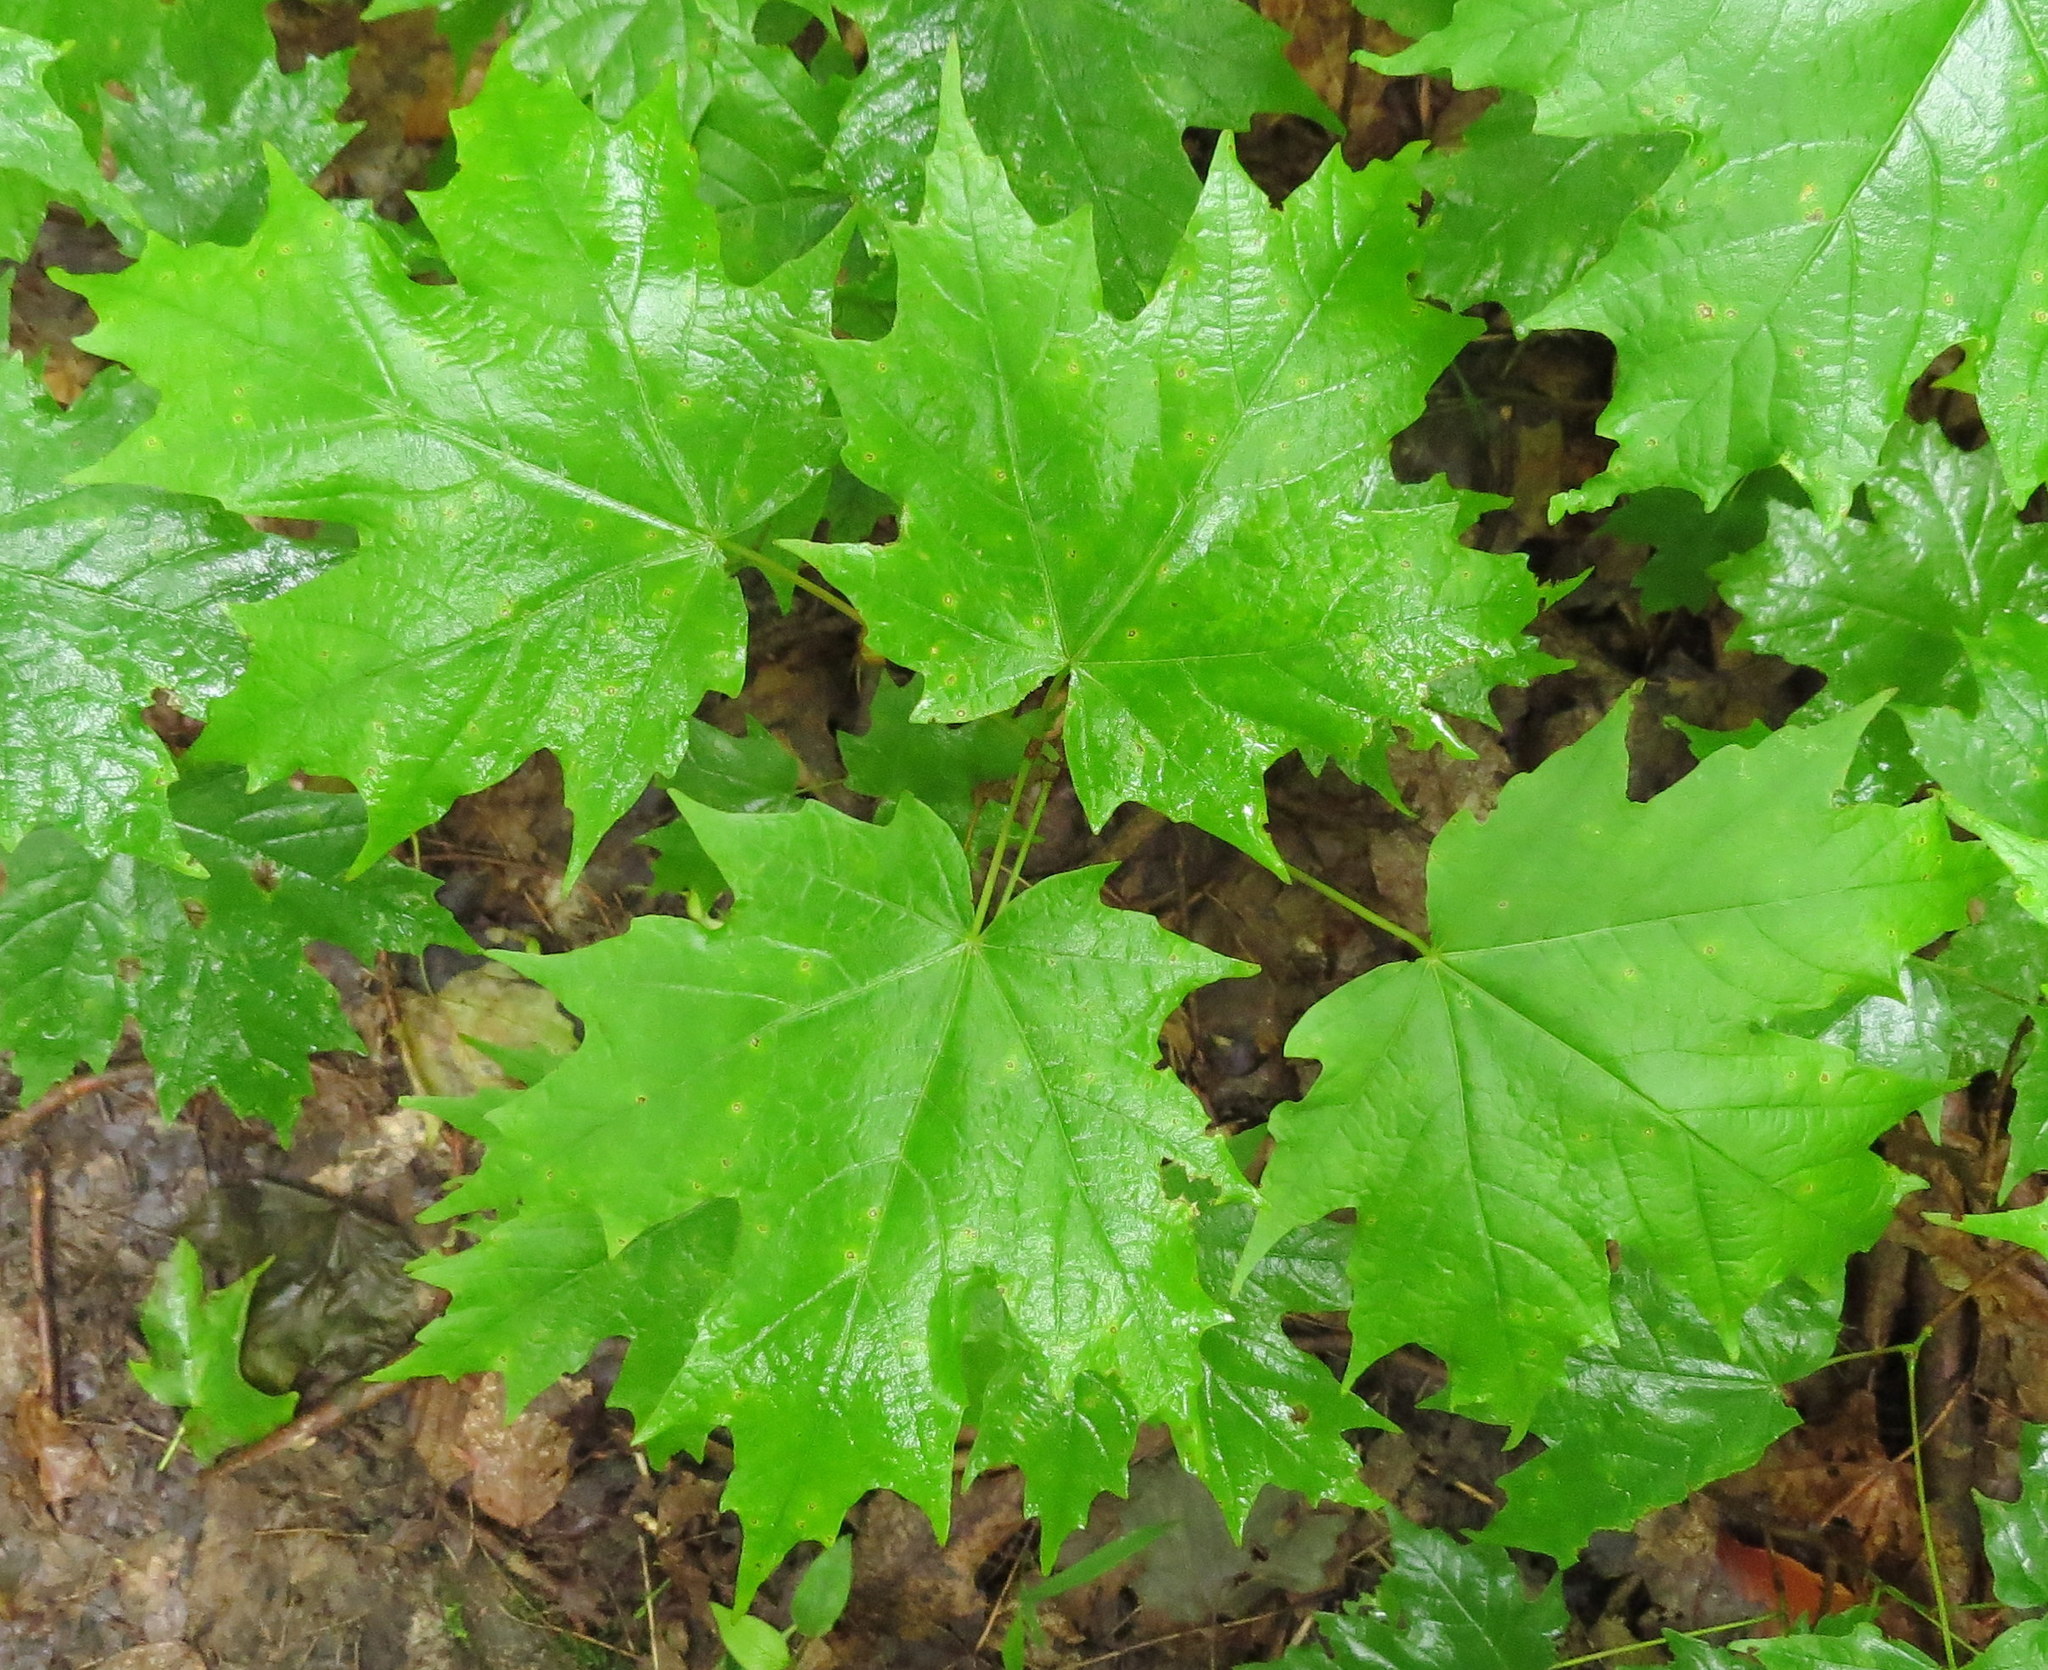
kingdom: Plantae
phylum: Tracheophyta
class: Magnoliopsida
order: Sapindales
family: Sapindaceae
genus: Acer
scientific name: Acer saccharum
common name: Sugar maple
